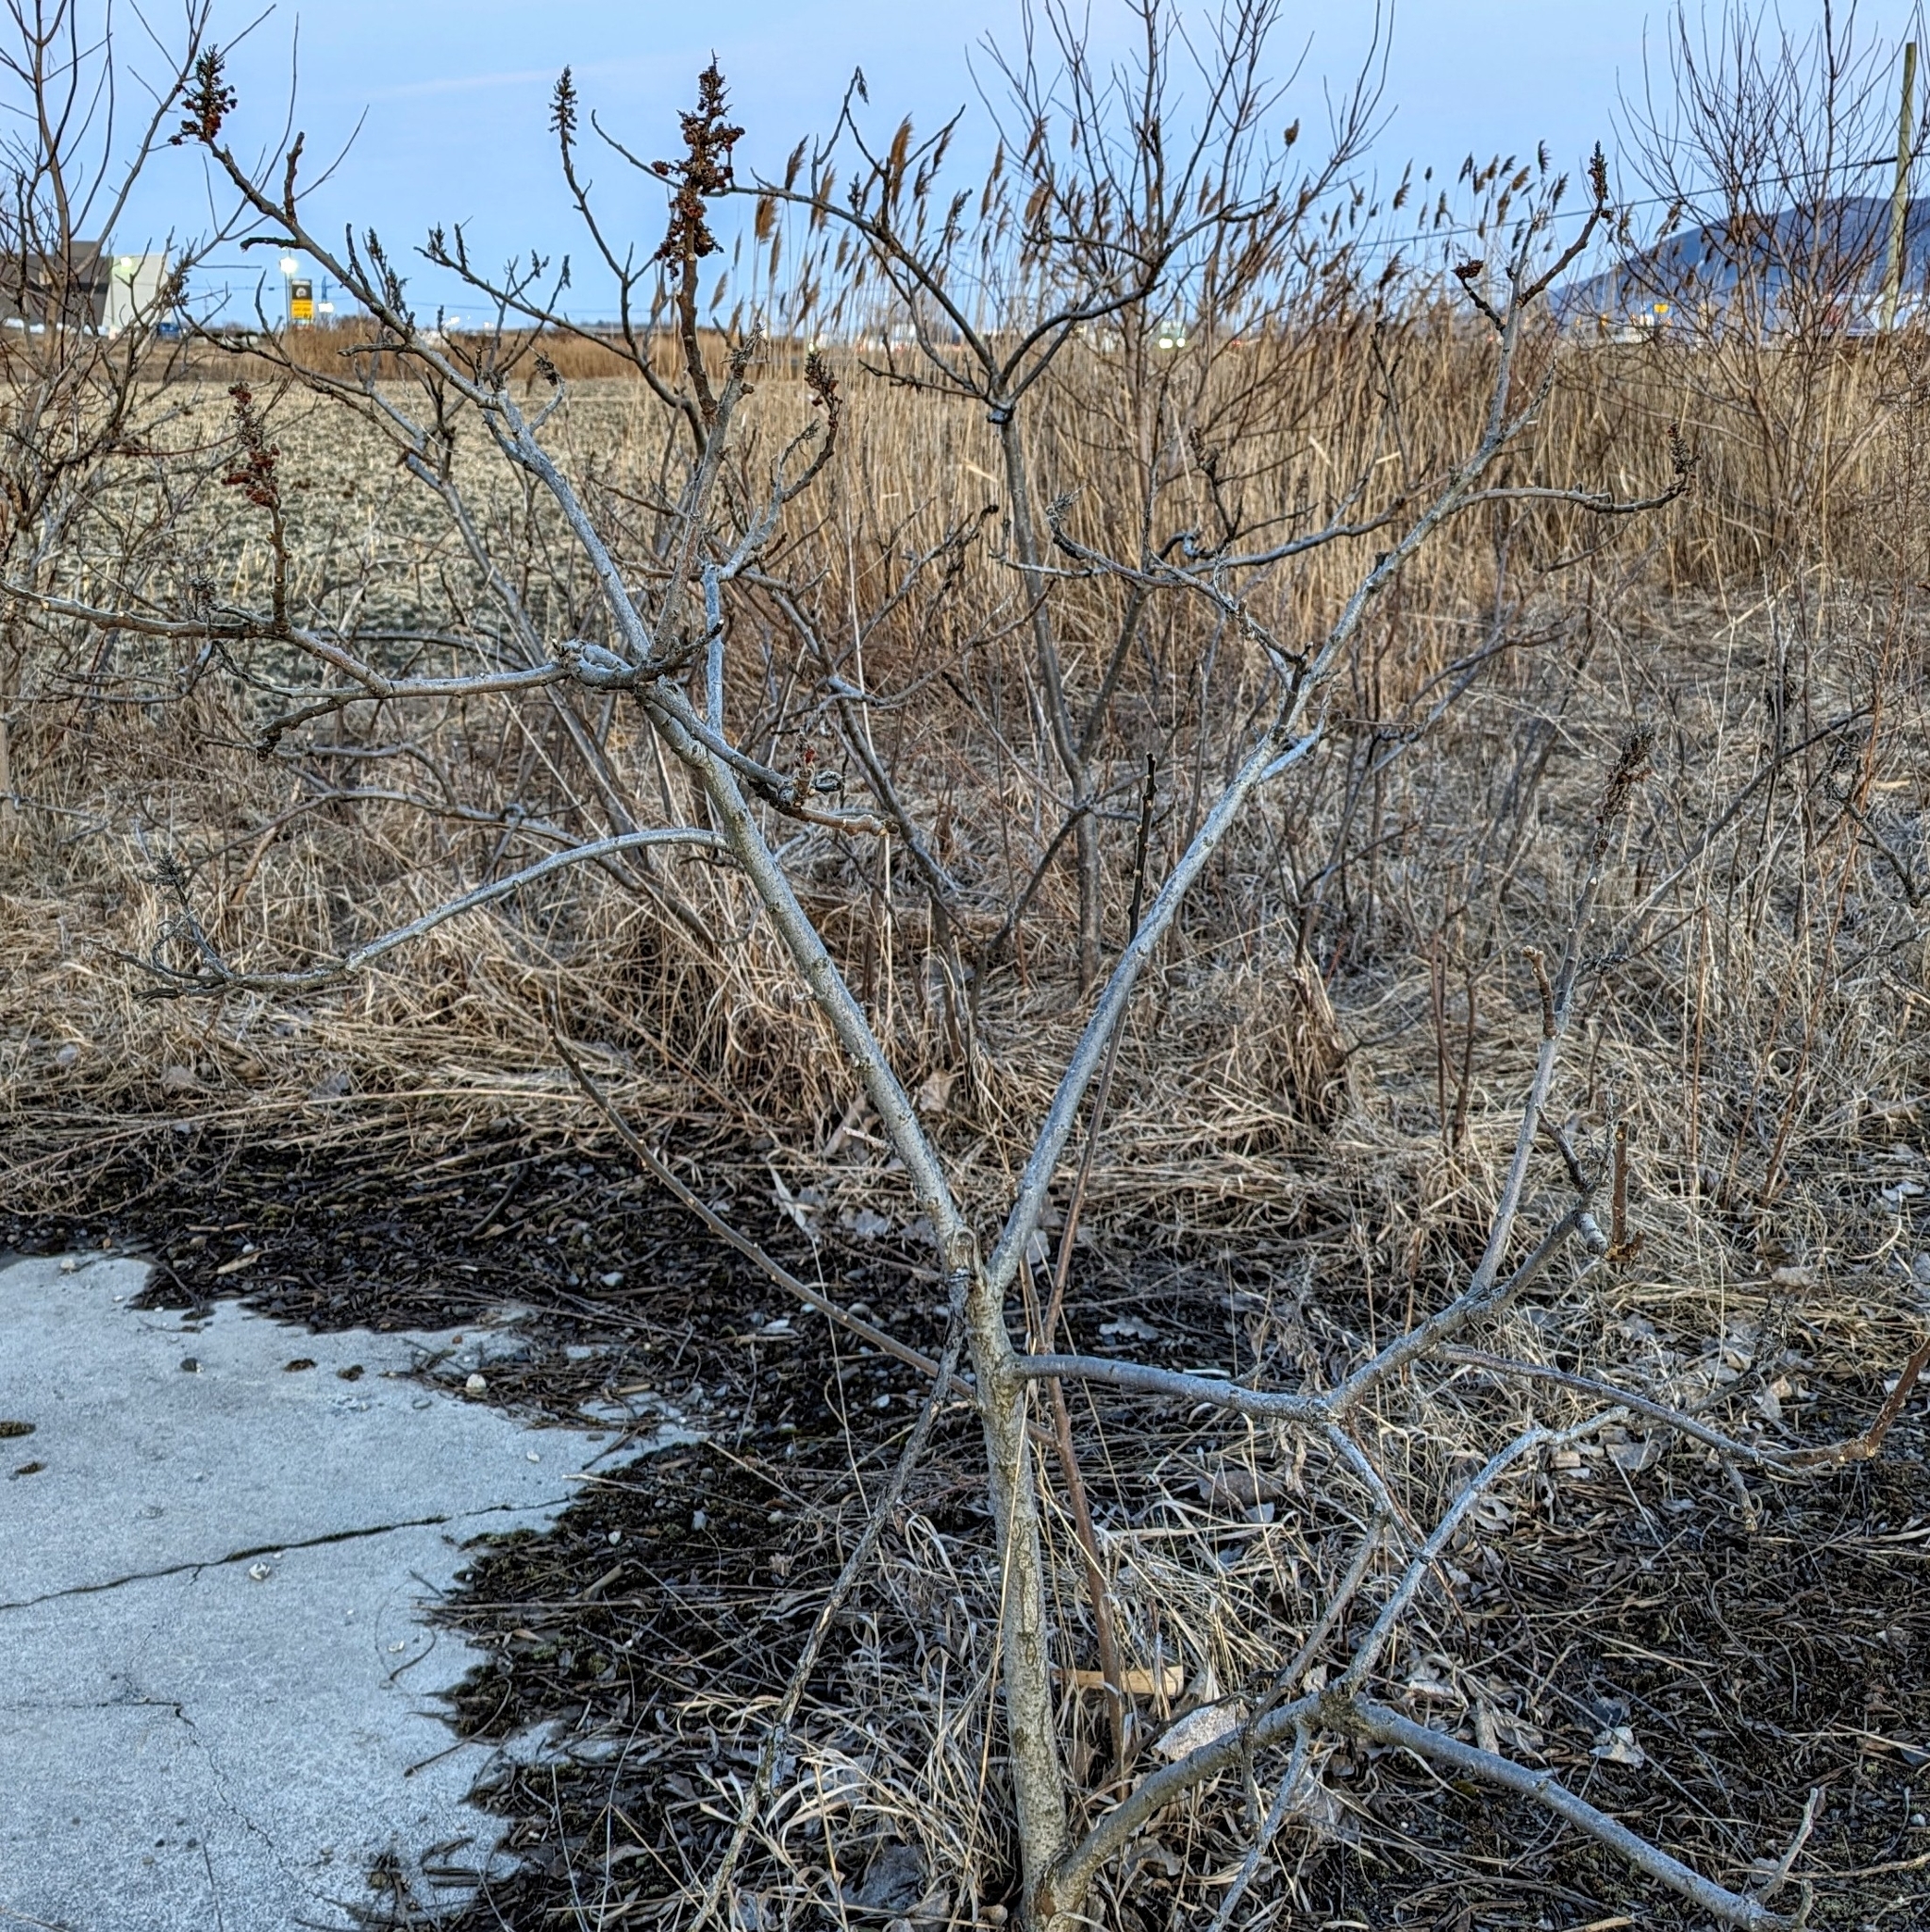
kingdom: Plantae
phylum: Tracheophyta
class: Magnoliopsida
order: Sapindales
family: Anacardiaceae
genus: Rhus
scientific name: Rhus typhina
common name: Staghorn sumac
